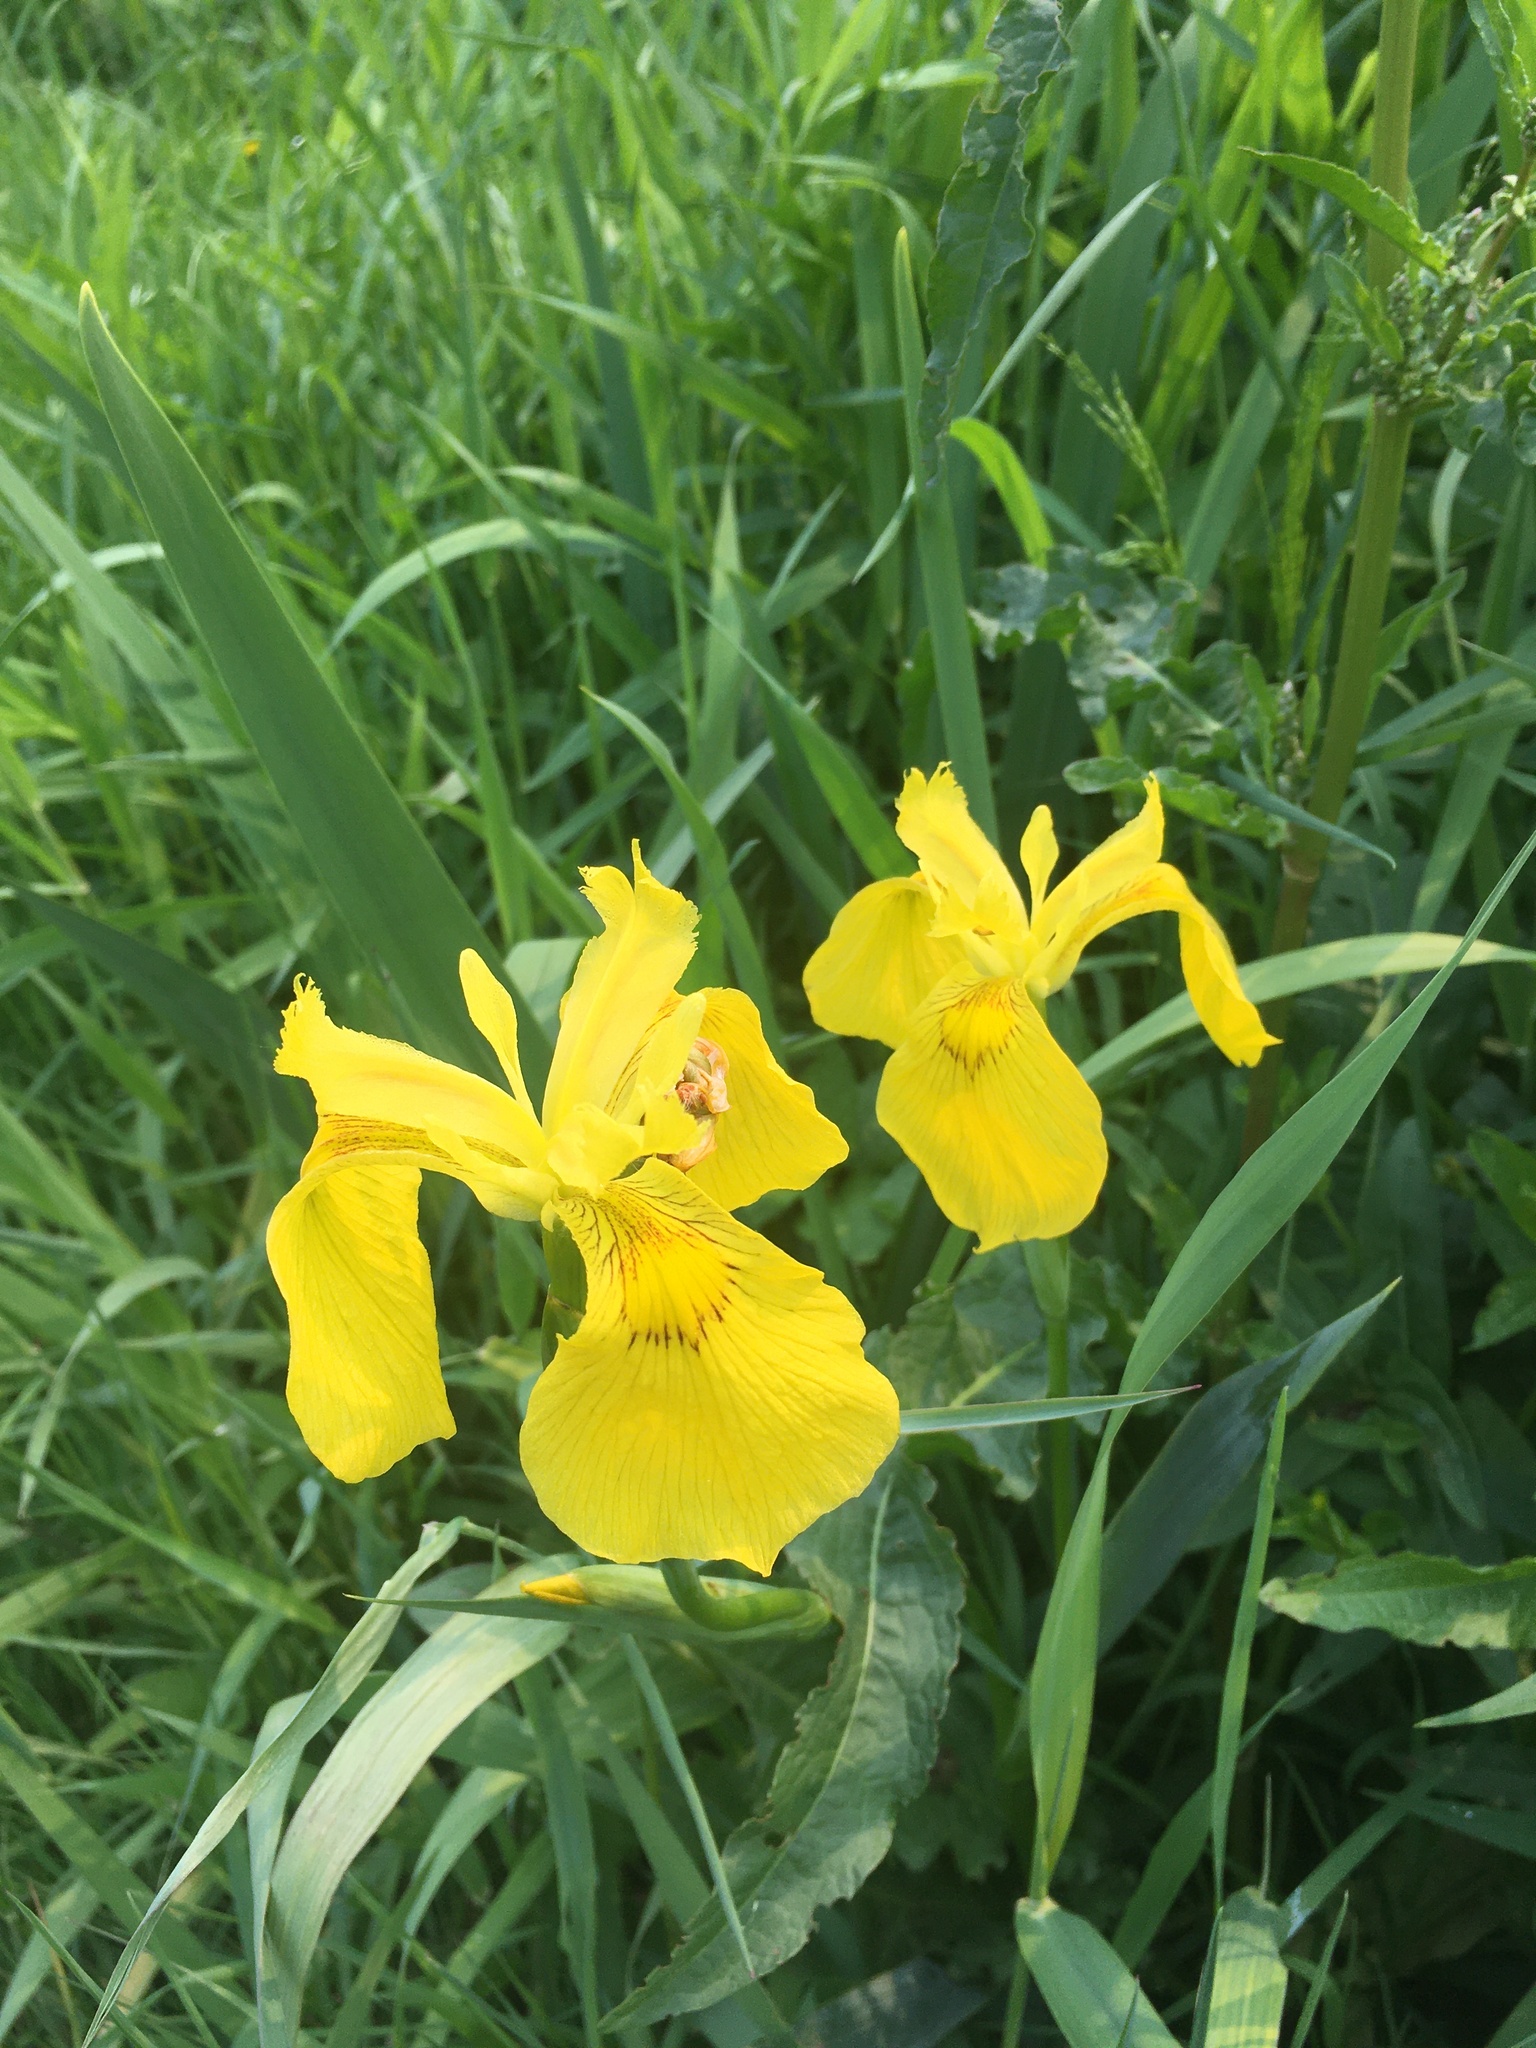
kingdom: Plantae
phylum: Tracheophyta
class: Liliopsida
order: Asparagales
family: Iridaceae
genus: Iris
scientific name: Iris pseudacorus
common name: Yellow flag
